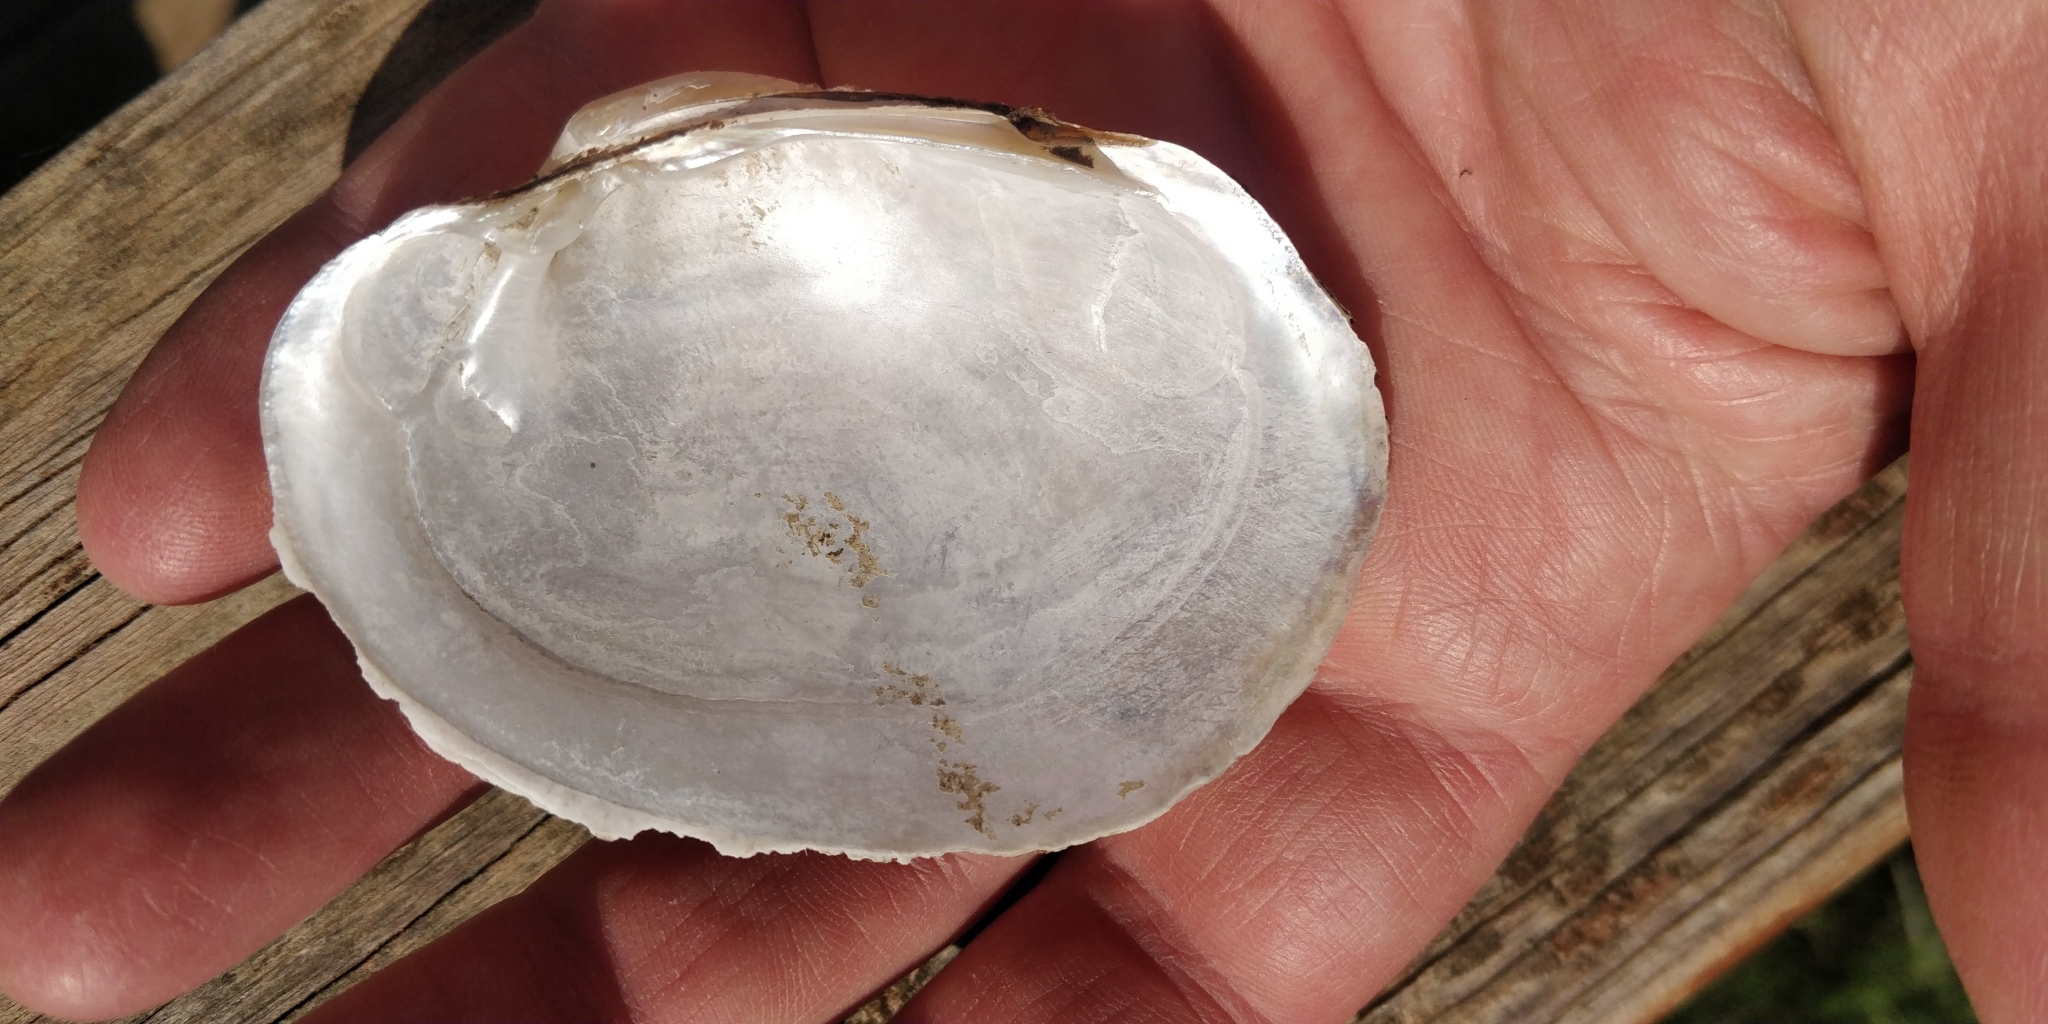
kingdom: Animalia
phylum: Mollusca
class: Bivalvia
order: Unionida
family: Unionidae
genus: Lampsilis
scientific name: Lampsilis cardium
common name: Plain pocketbook
